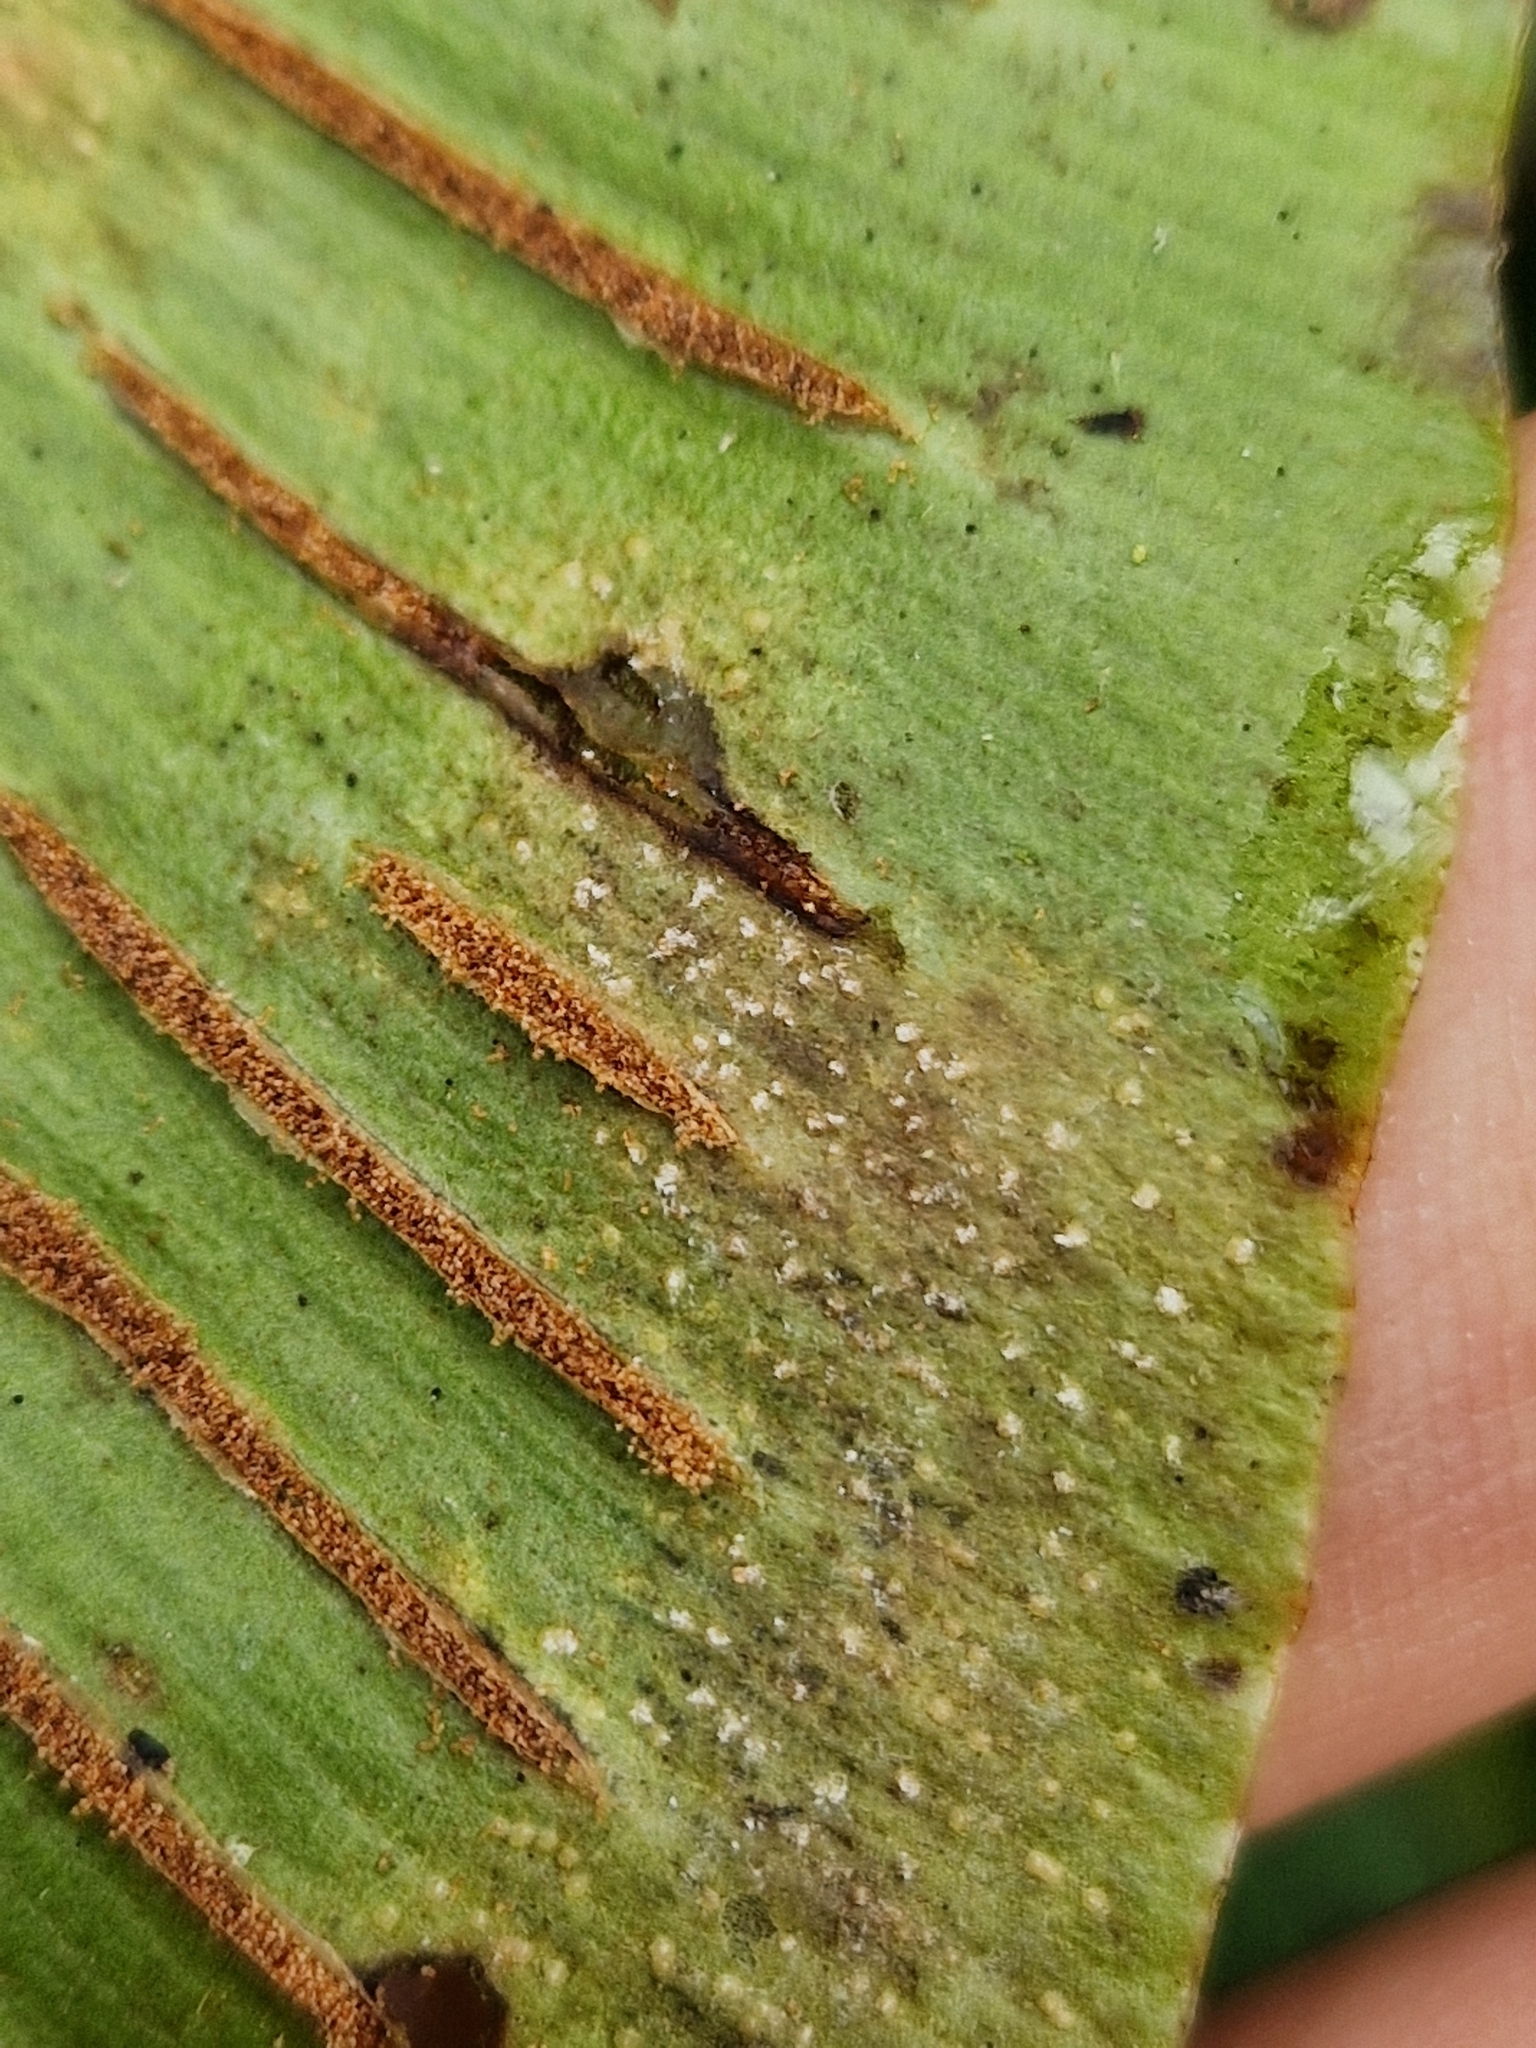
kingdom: Fungi
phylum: Basidiomycota
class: Pucciniomycetes
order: Pucciniales
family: Milesinaceae
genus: Milesina
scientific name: Milesina scolopendrii
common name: Hart's tongue fern rust
